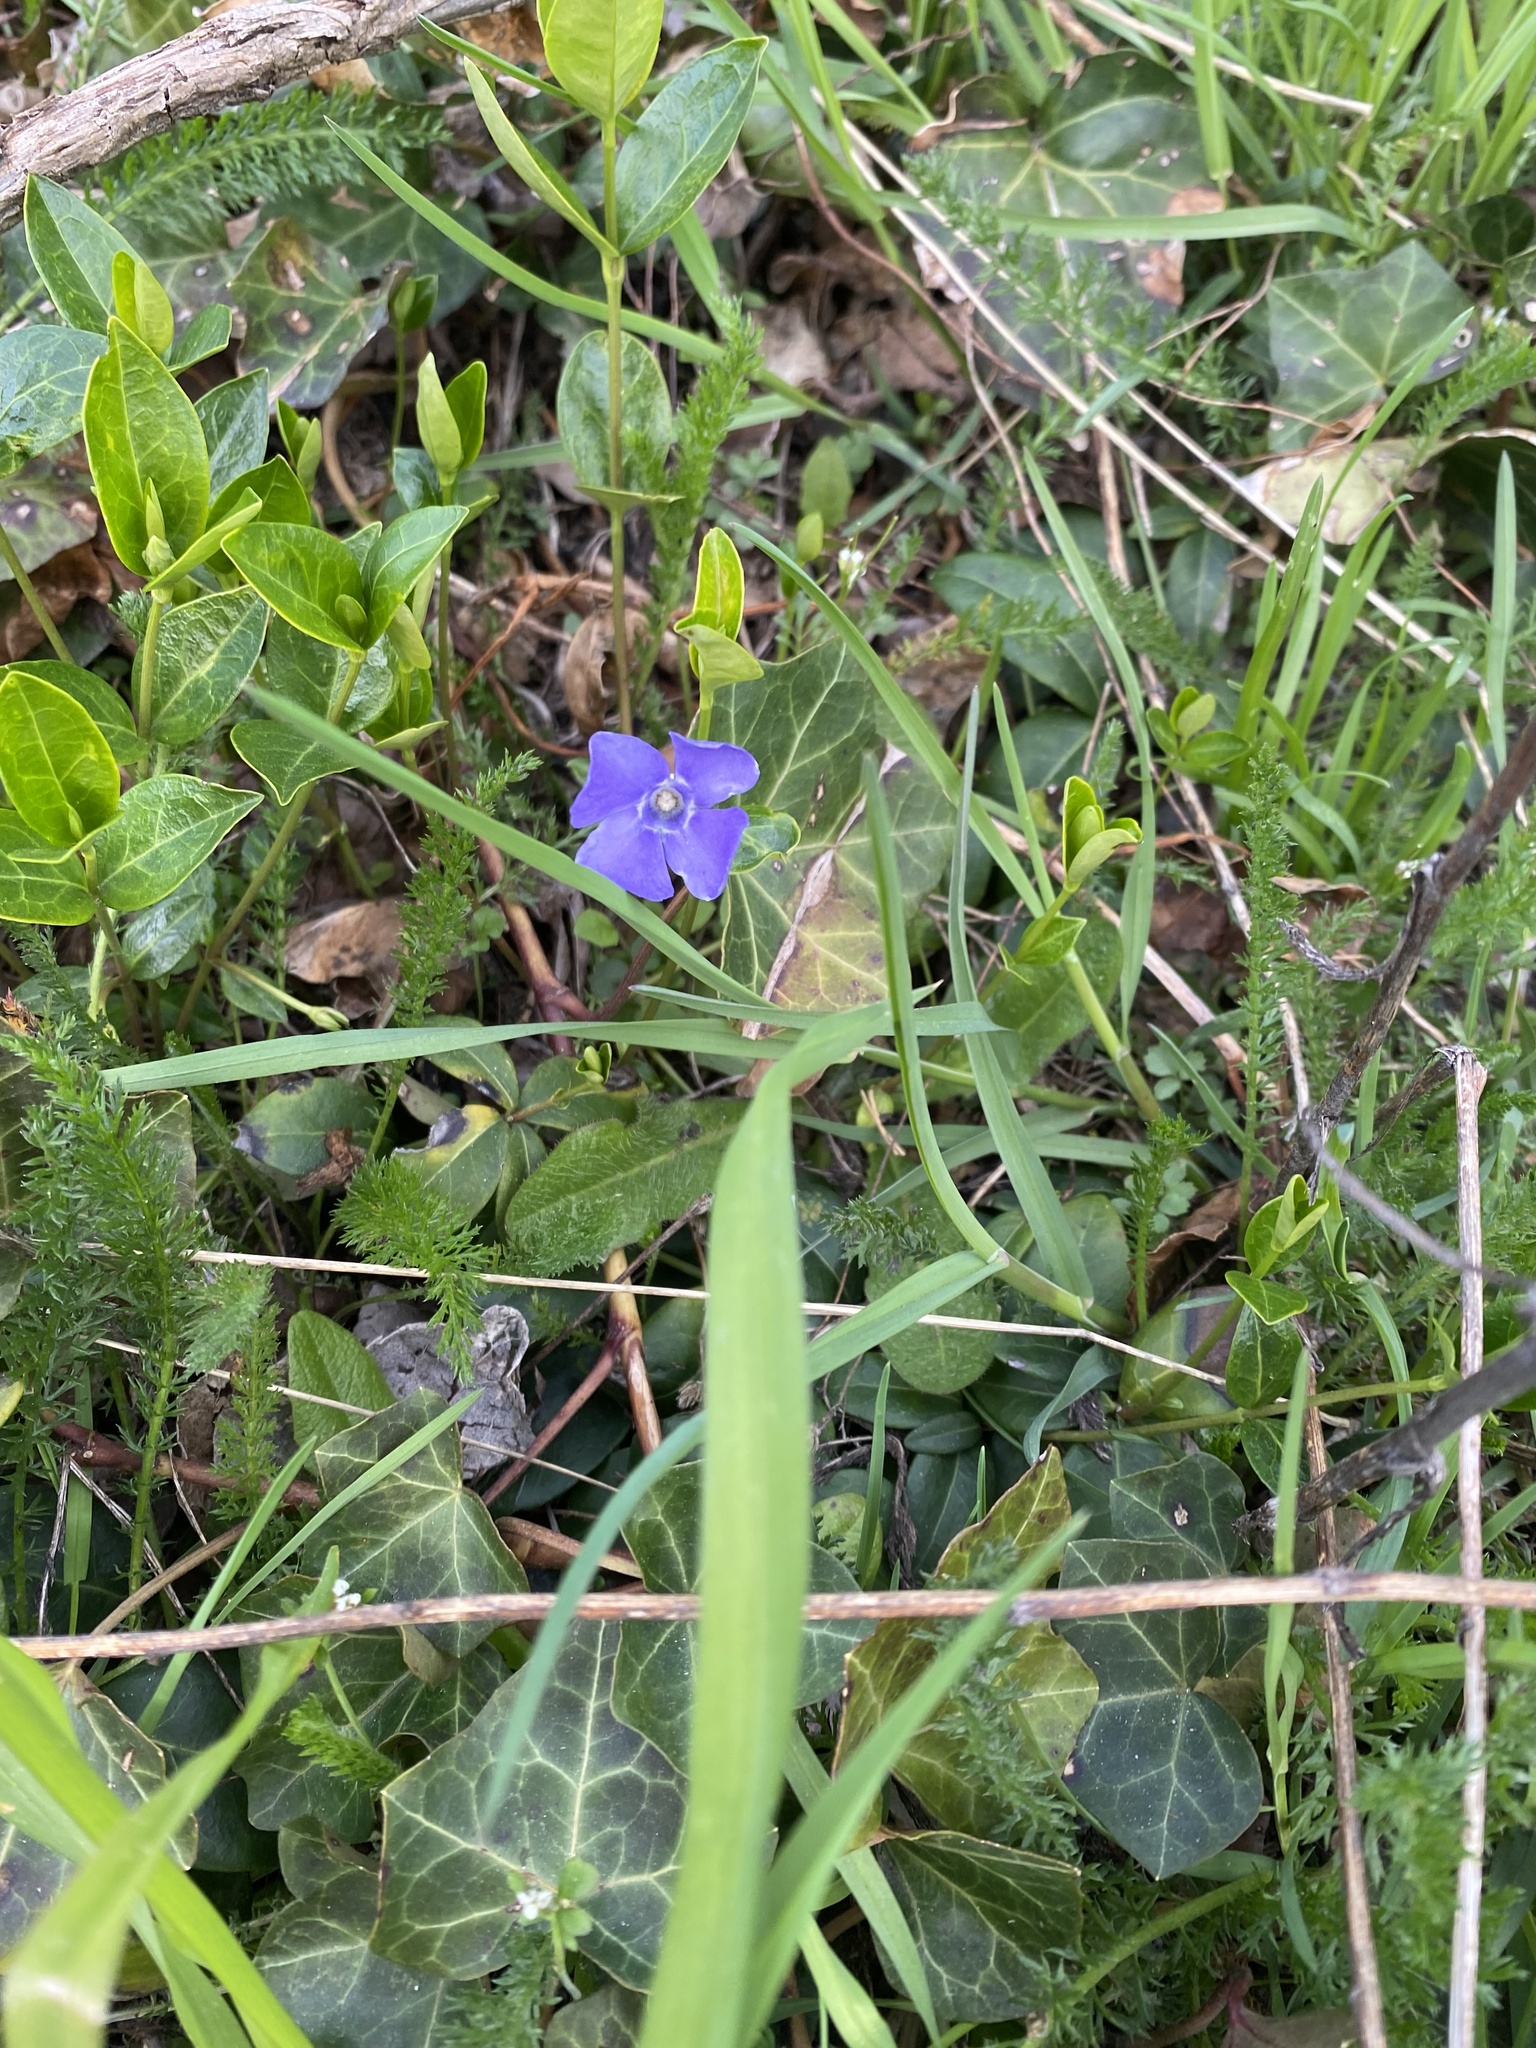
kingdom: Plantae
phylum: Tracheophyta
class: Magnoliopsida
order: Gentianales
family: Apocynaceae
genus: Vinca
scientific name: Vinca minor
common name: Lesser periwinkle
